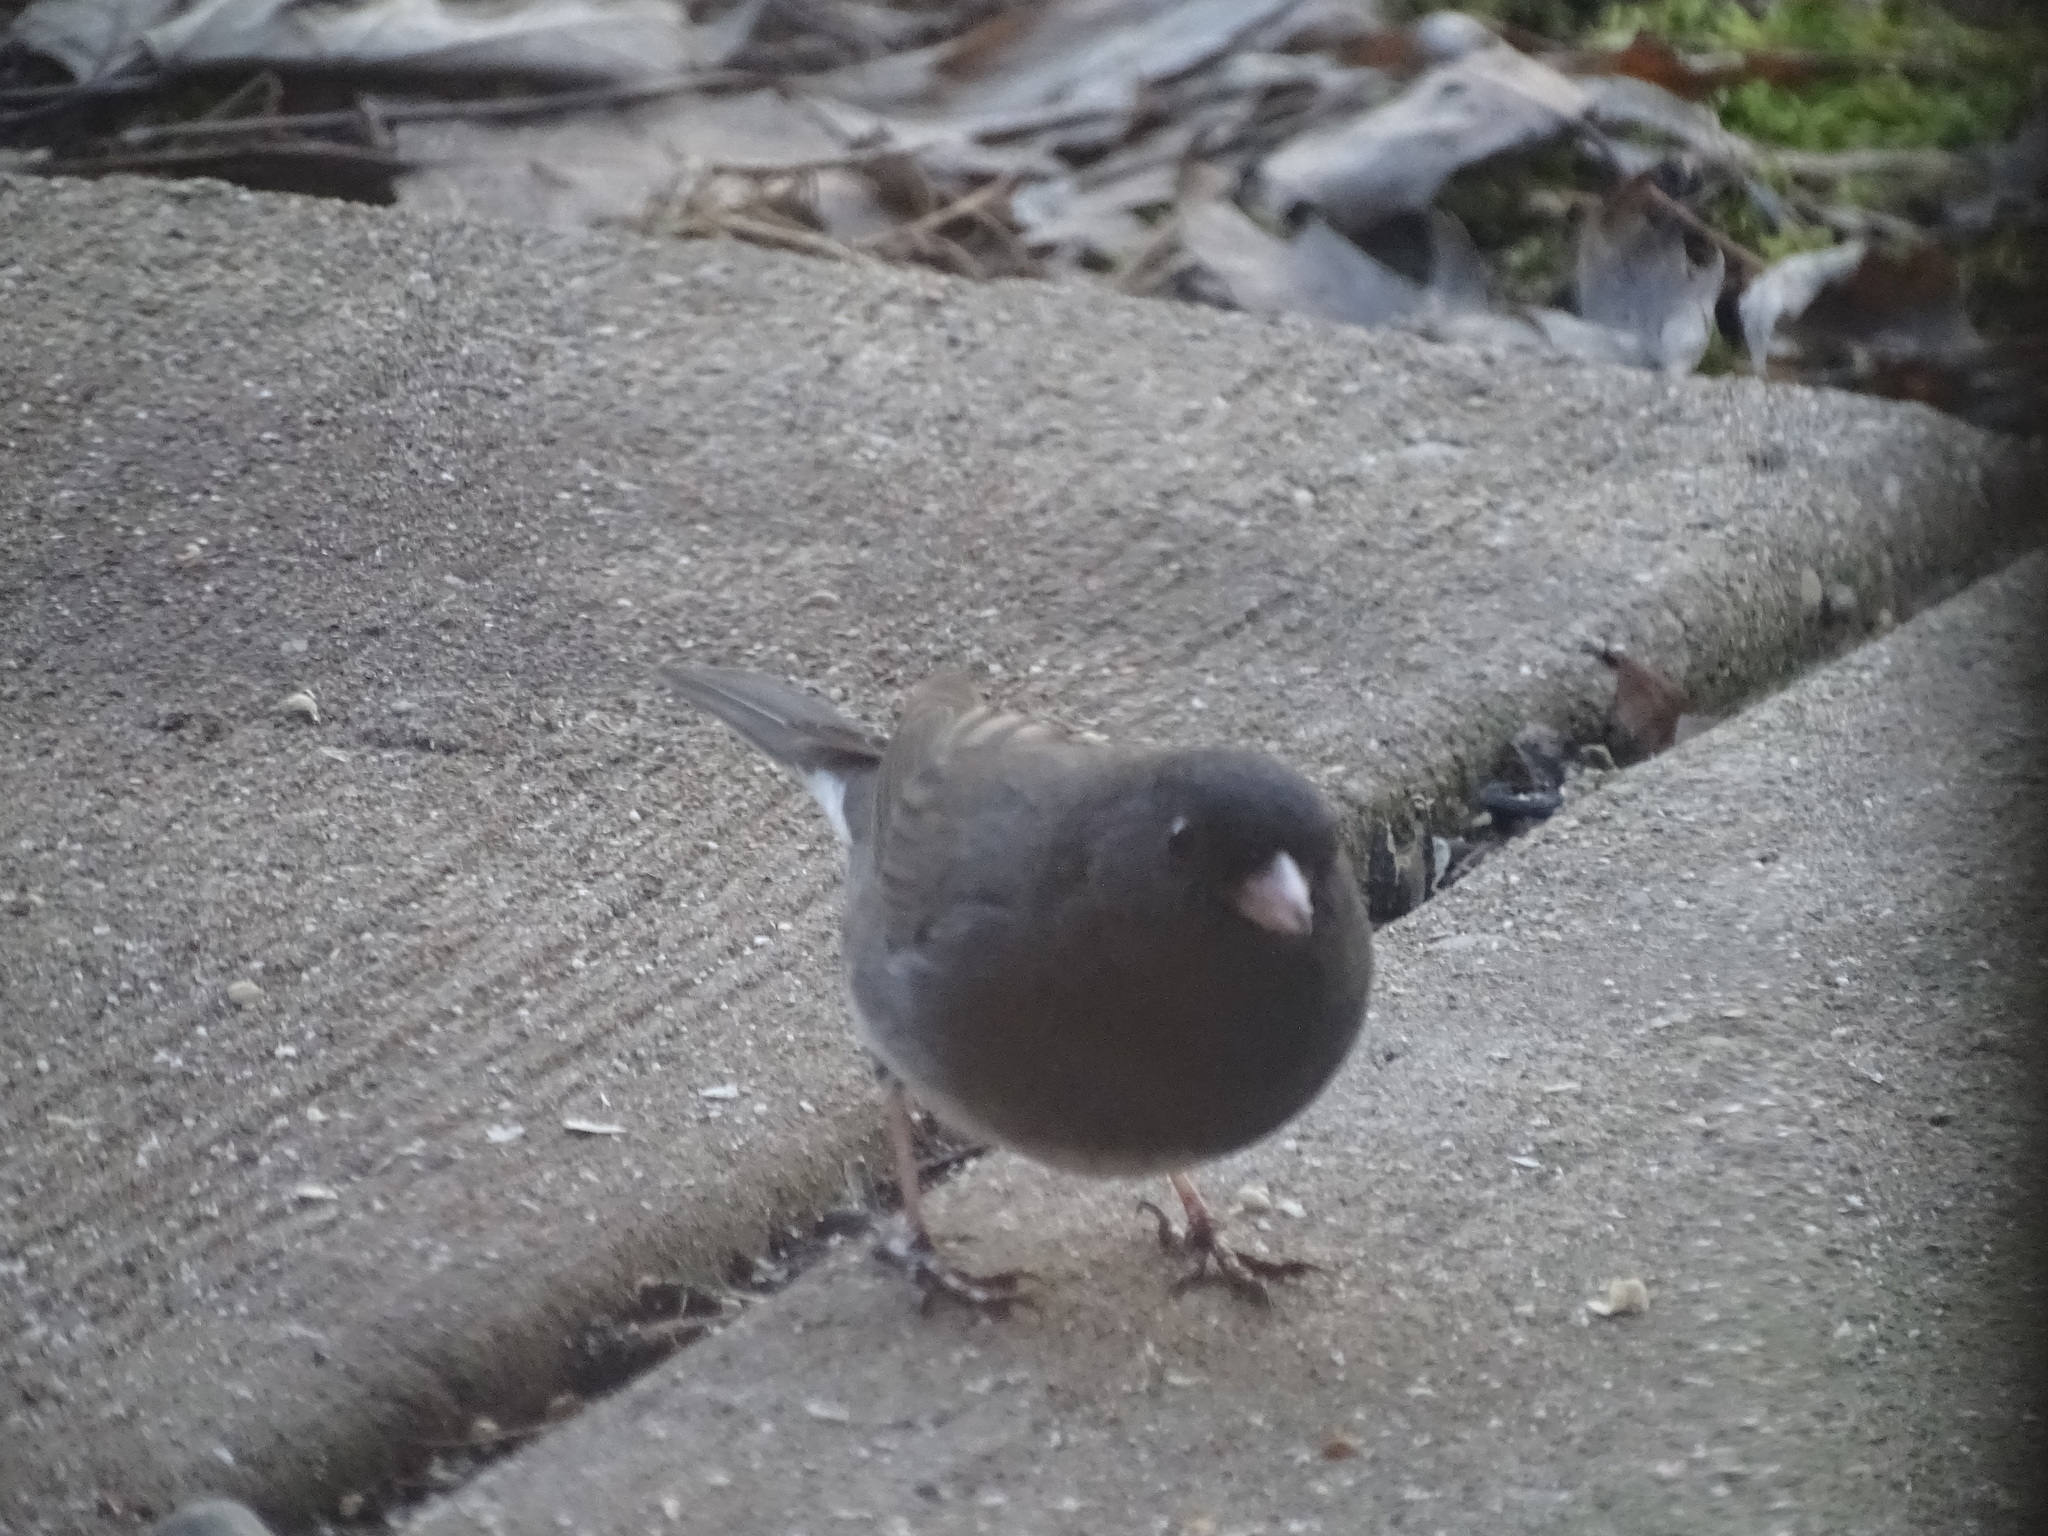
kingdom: Animalia
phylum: Chordata
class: Aves
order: Passeriformes
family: Passerellidae
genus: Junco
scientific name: Junco hyemalis
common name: Dark-eyed junco
